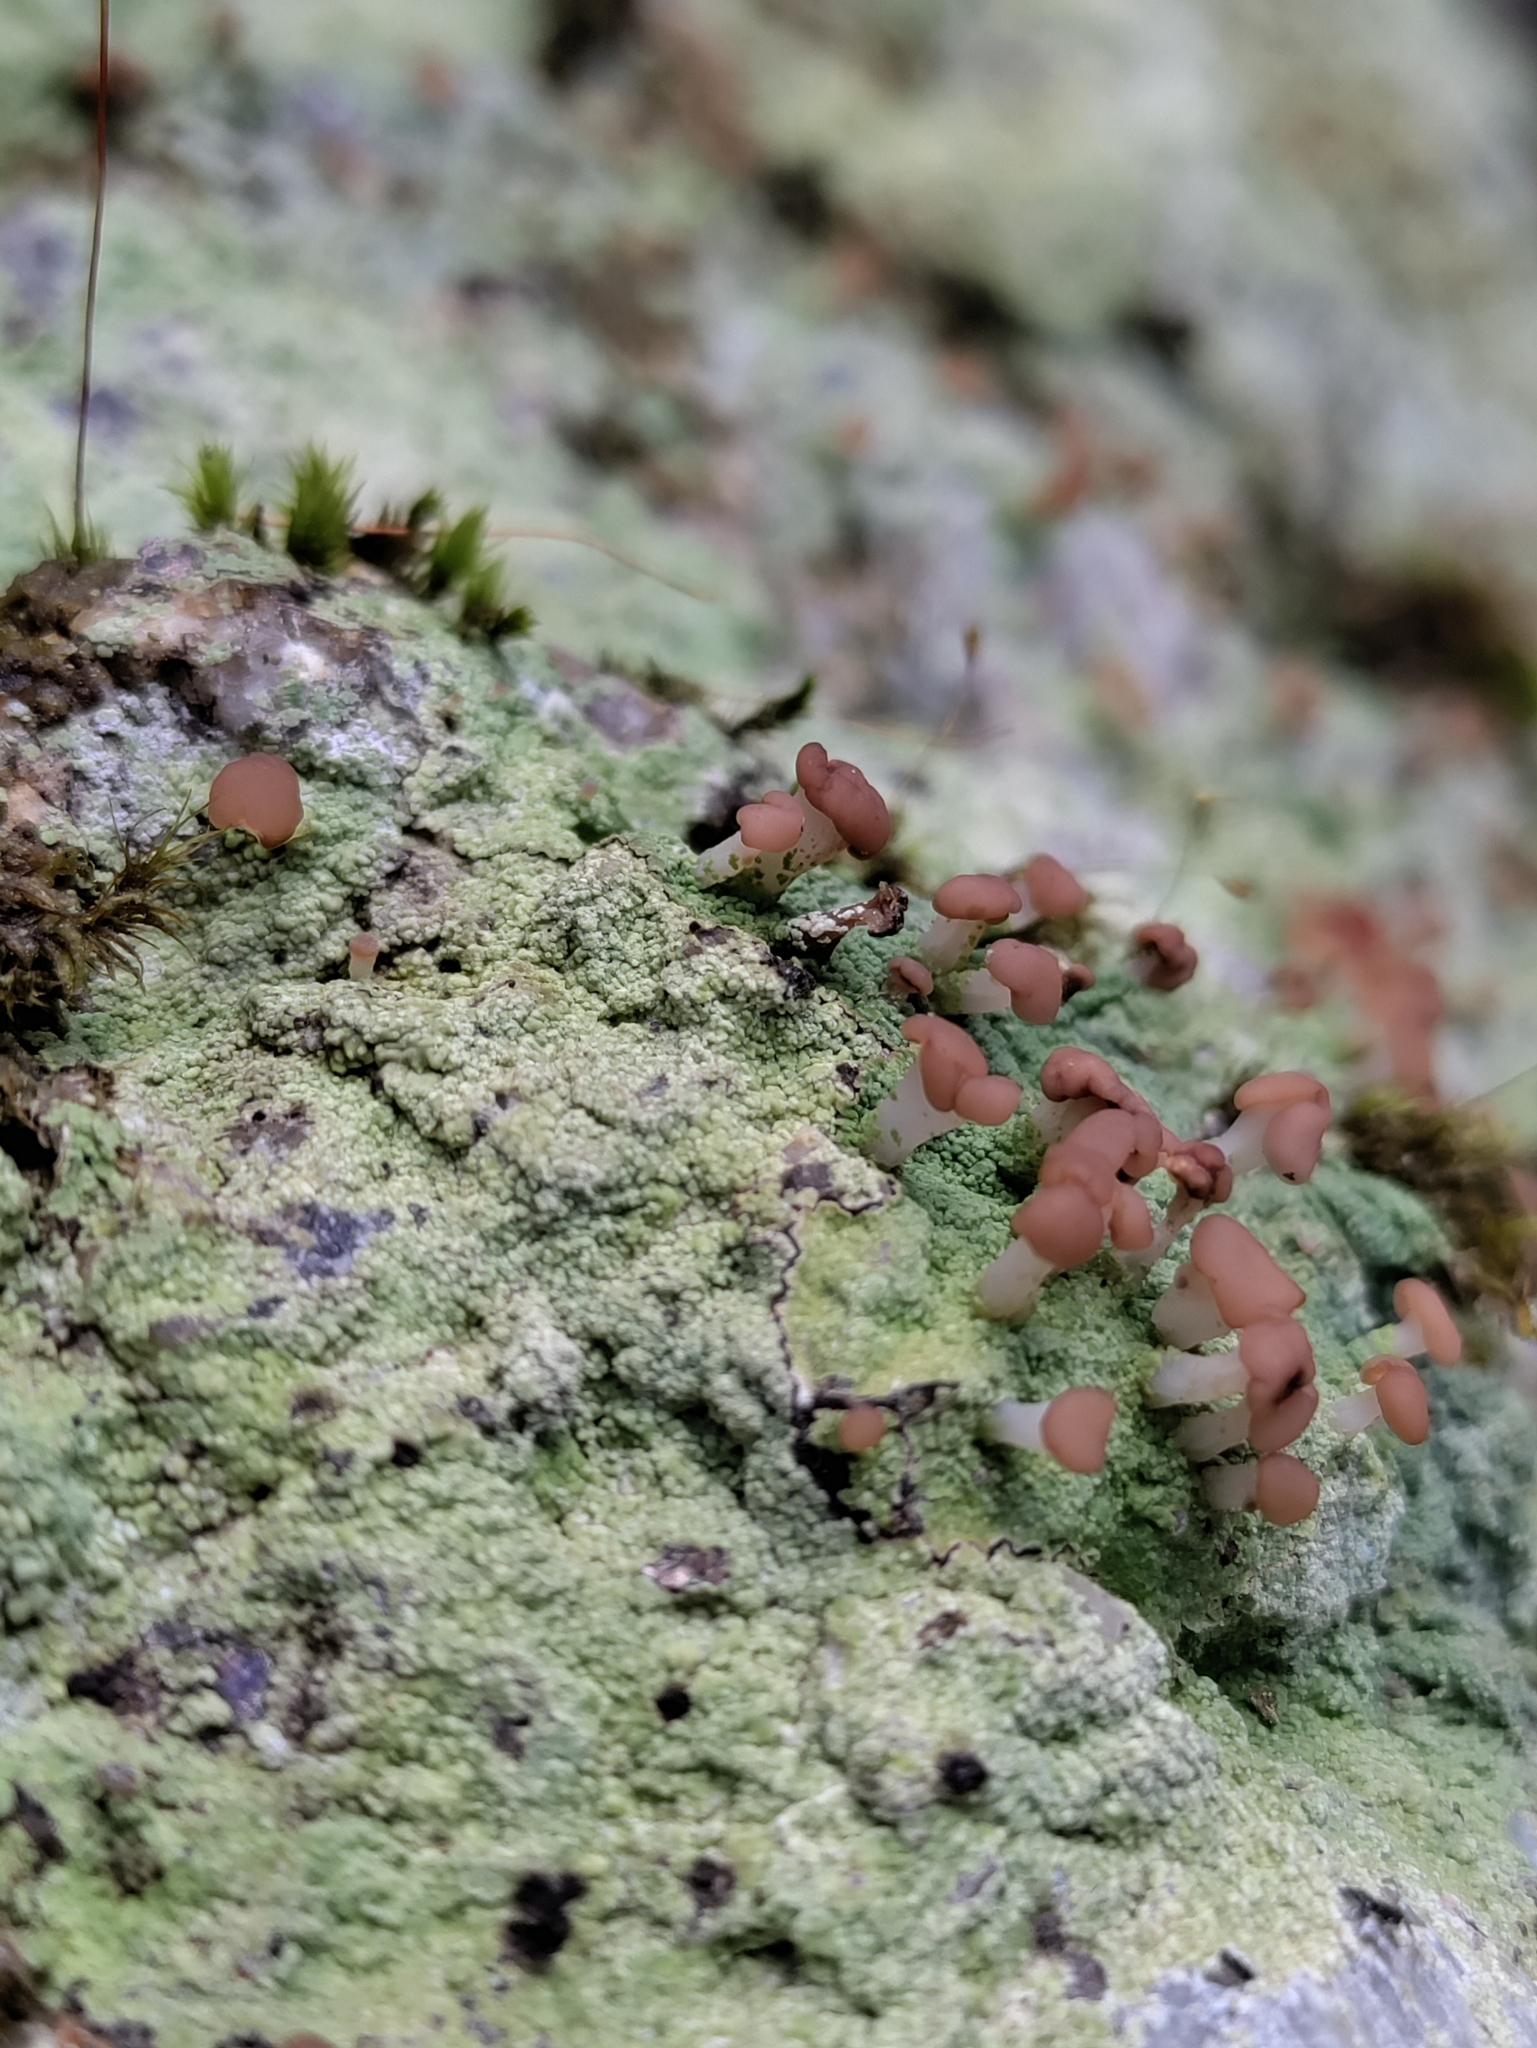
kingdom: Fungi
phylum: Ascomycota
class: Lecanoromycetes
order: Baeomycetales
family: Baeomycetaceae
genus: Baeomyces
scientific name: Baeomyces rufus
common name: Brown beret lichen
